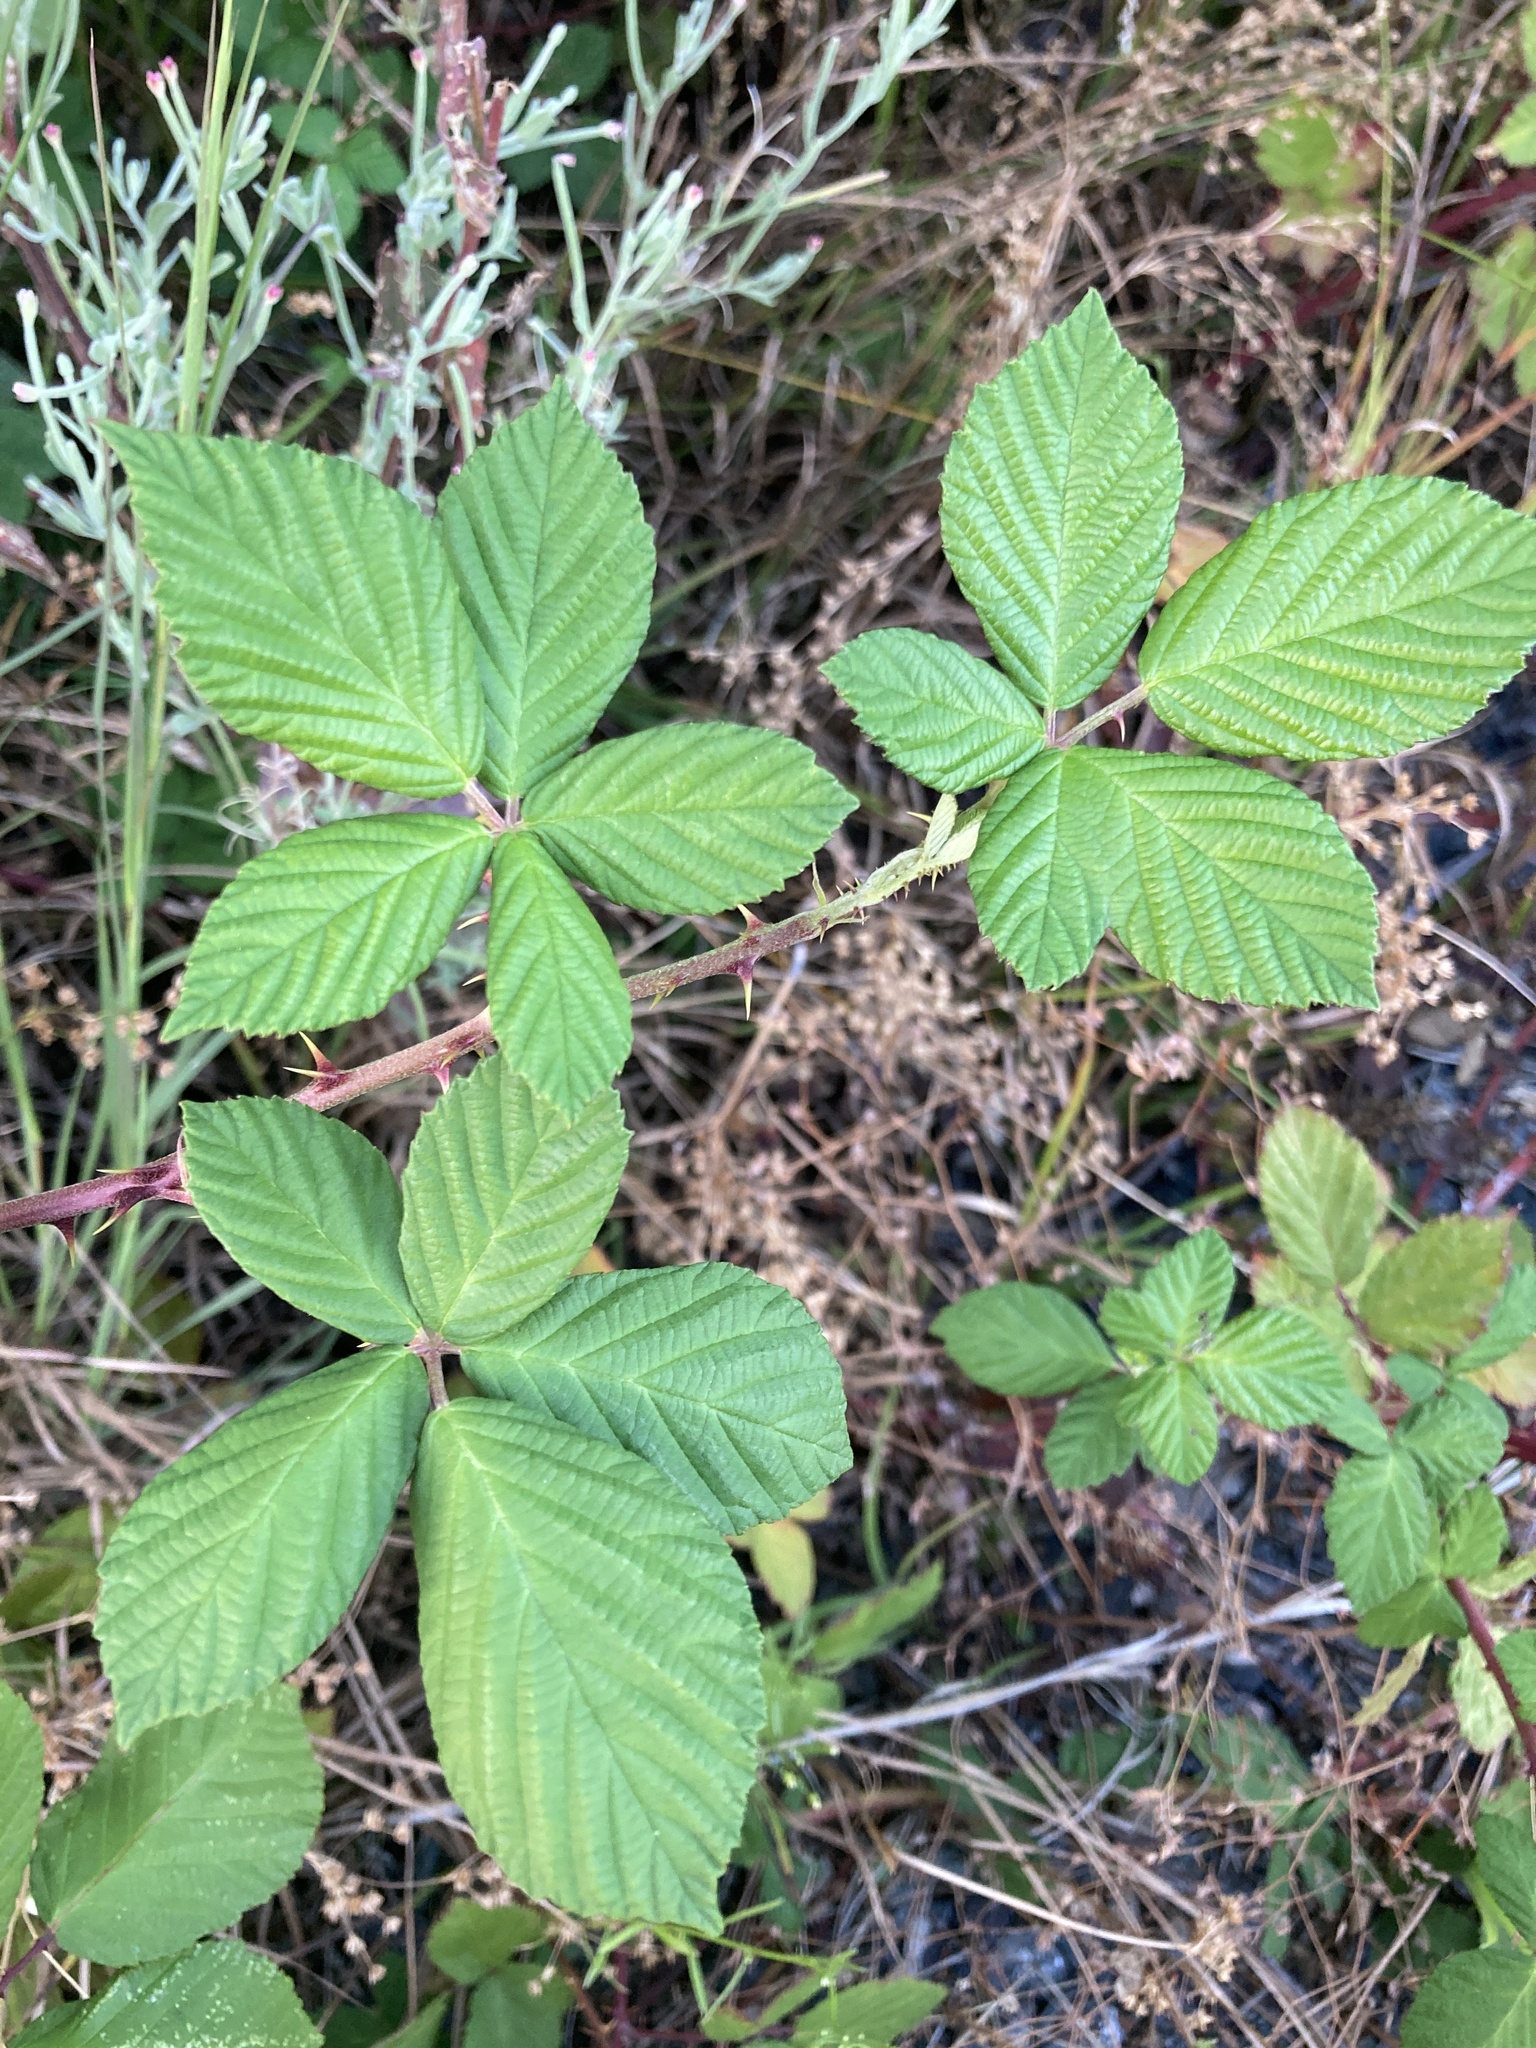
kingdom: Plantae
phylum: Tracheophyta
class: Magnoliopsida
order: Rosales
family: Rosaceae
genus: Rubus
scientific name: Rubus armeniacus
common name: Himalayan blackberry
